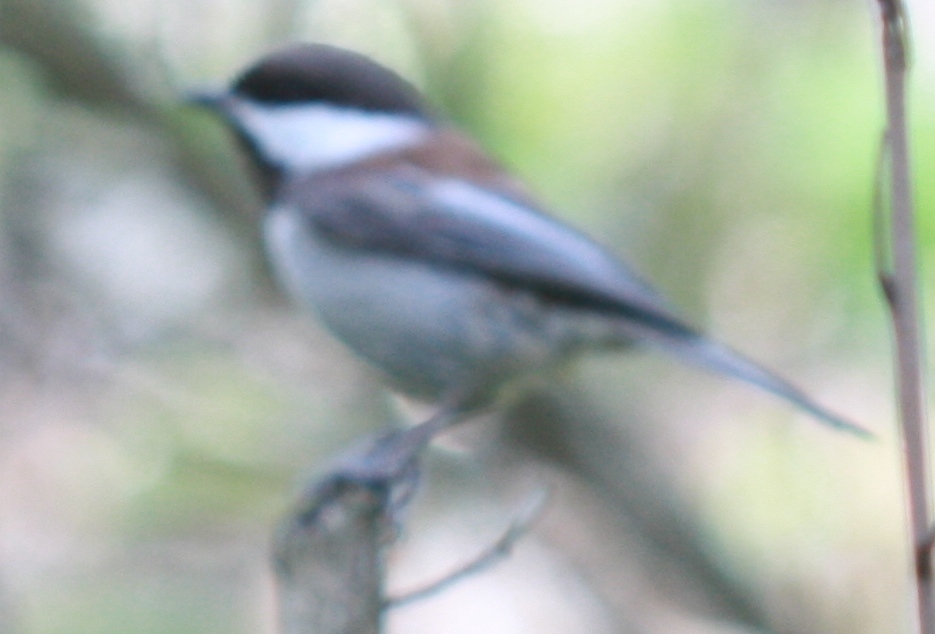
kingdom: Animalia
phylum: Chordata
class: Aves
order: Passeriformes
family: Paridae
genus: Poecile
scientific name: Poecile rufescens
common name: Chestnut-backed chickadee
